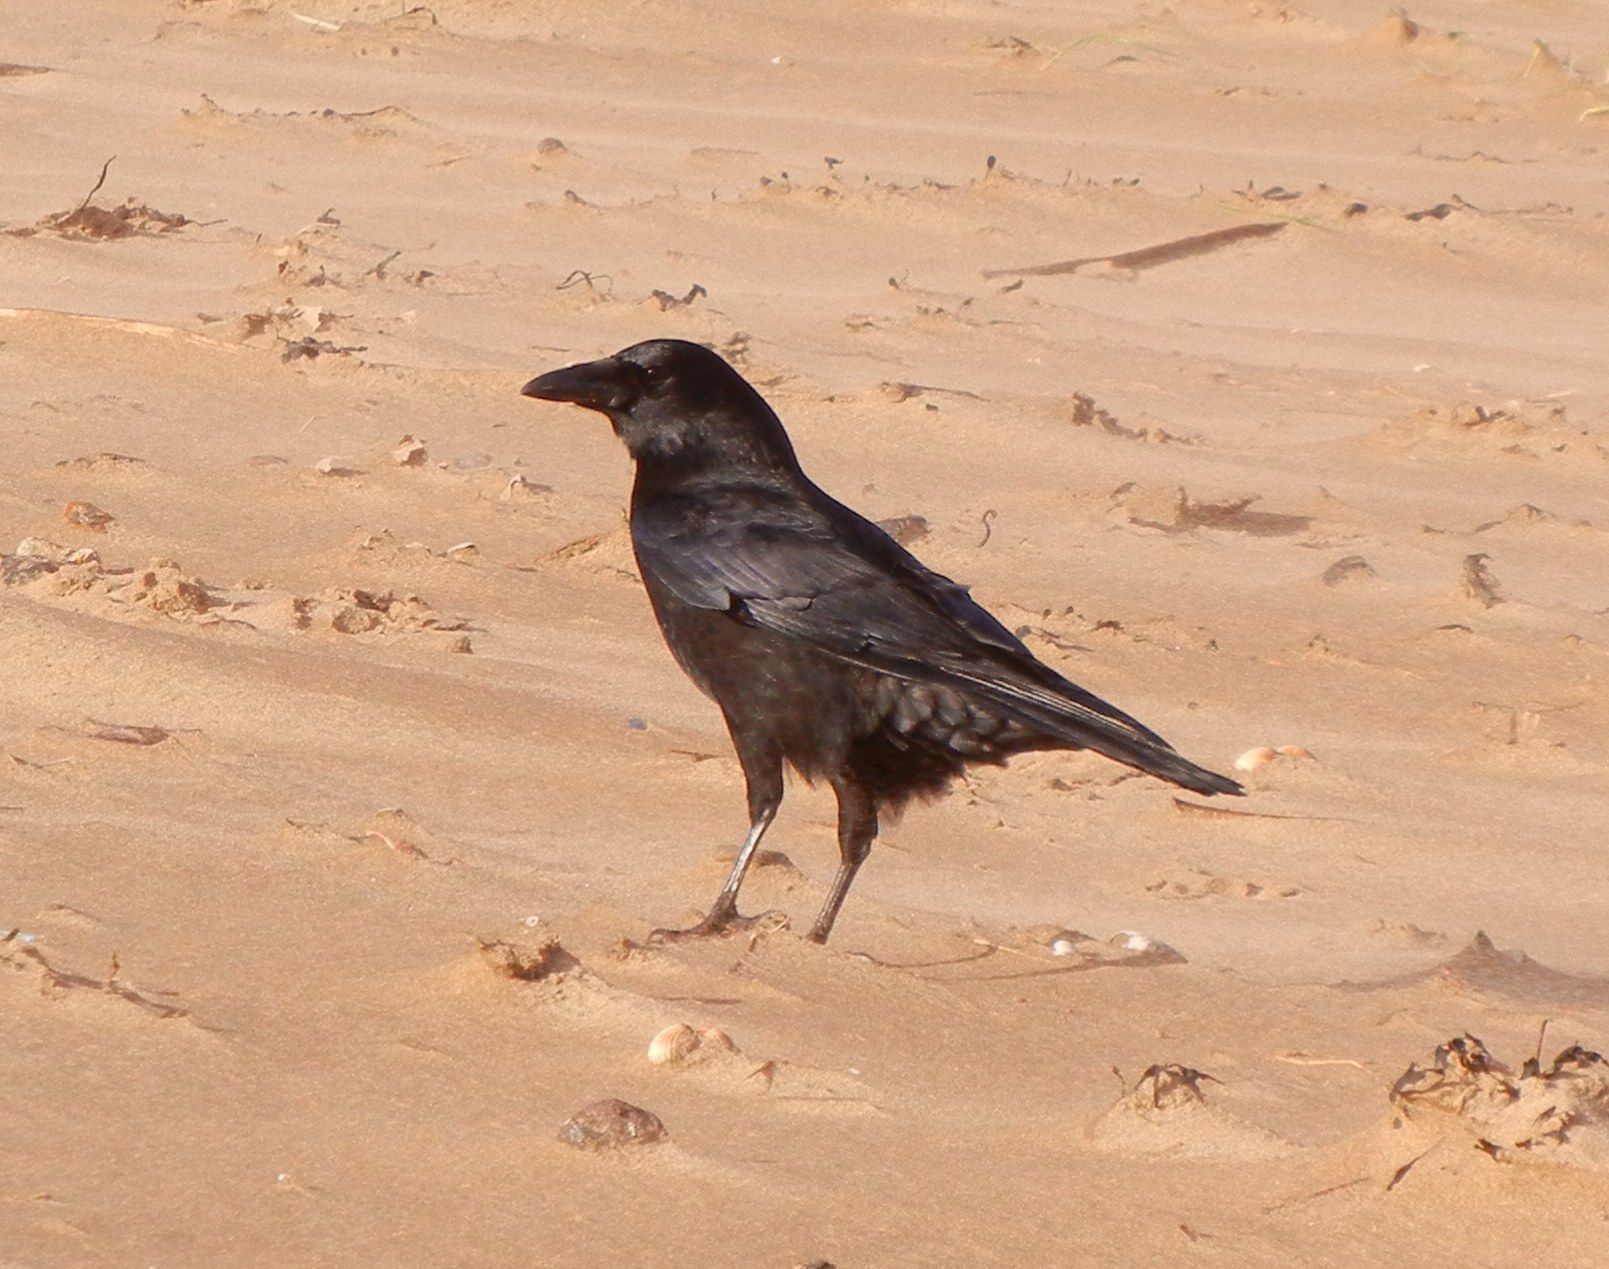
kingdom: Animalia
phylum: Chordata
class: Aves
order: Passeriformes
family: Corvidae
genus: Corvus
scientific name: Corvus corone
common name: Carrion crow
